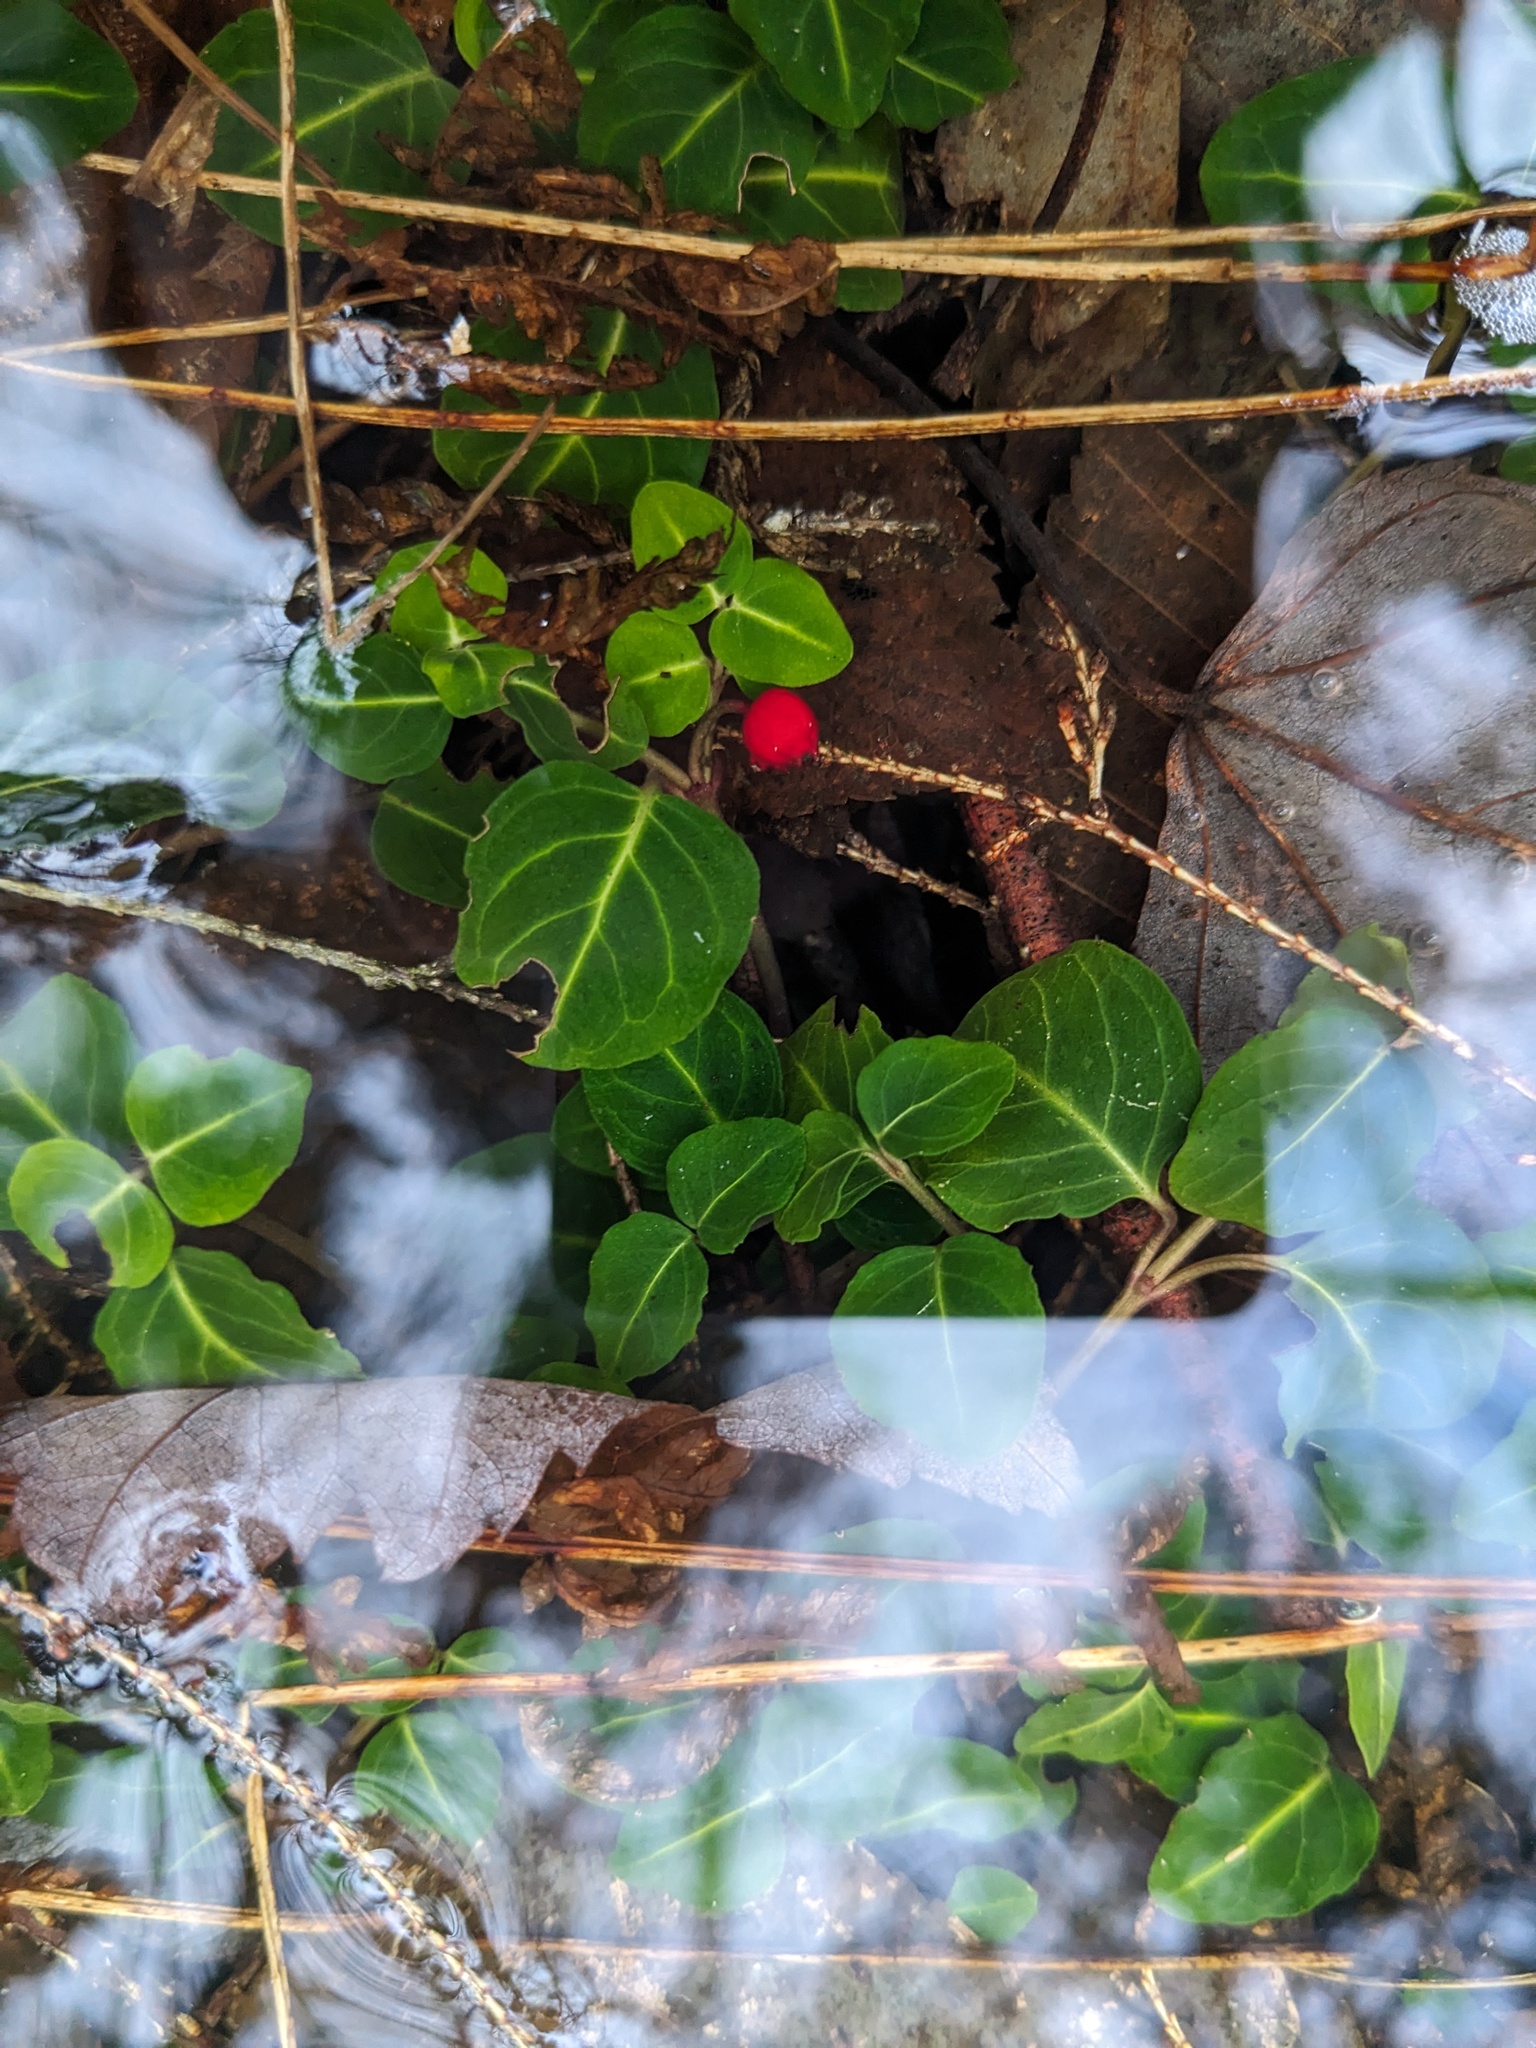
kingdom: Plantae
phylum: Tracheophyta
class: Magnoliopsida
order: Gentianales
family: Rubiaceae
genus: Mitchella
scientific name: Mitchella repens
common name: Partridge-berry
